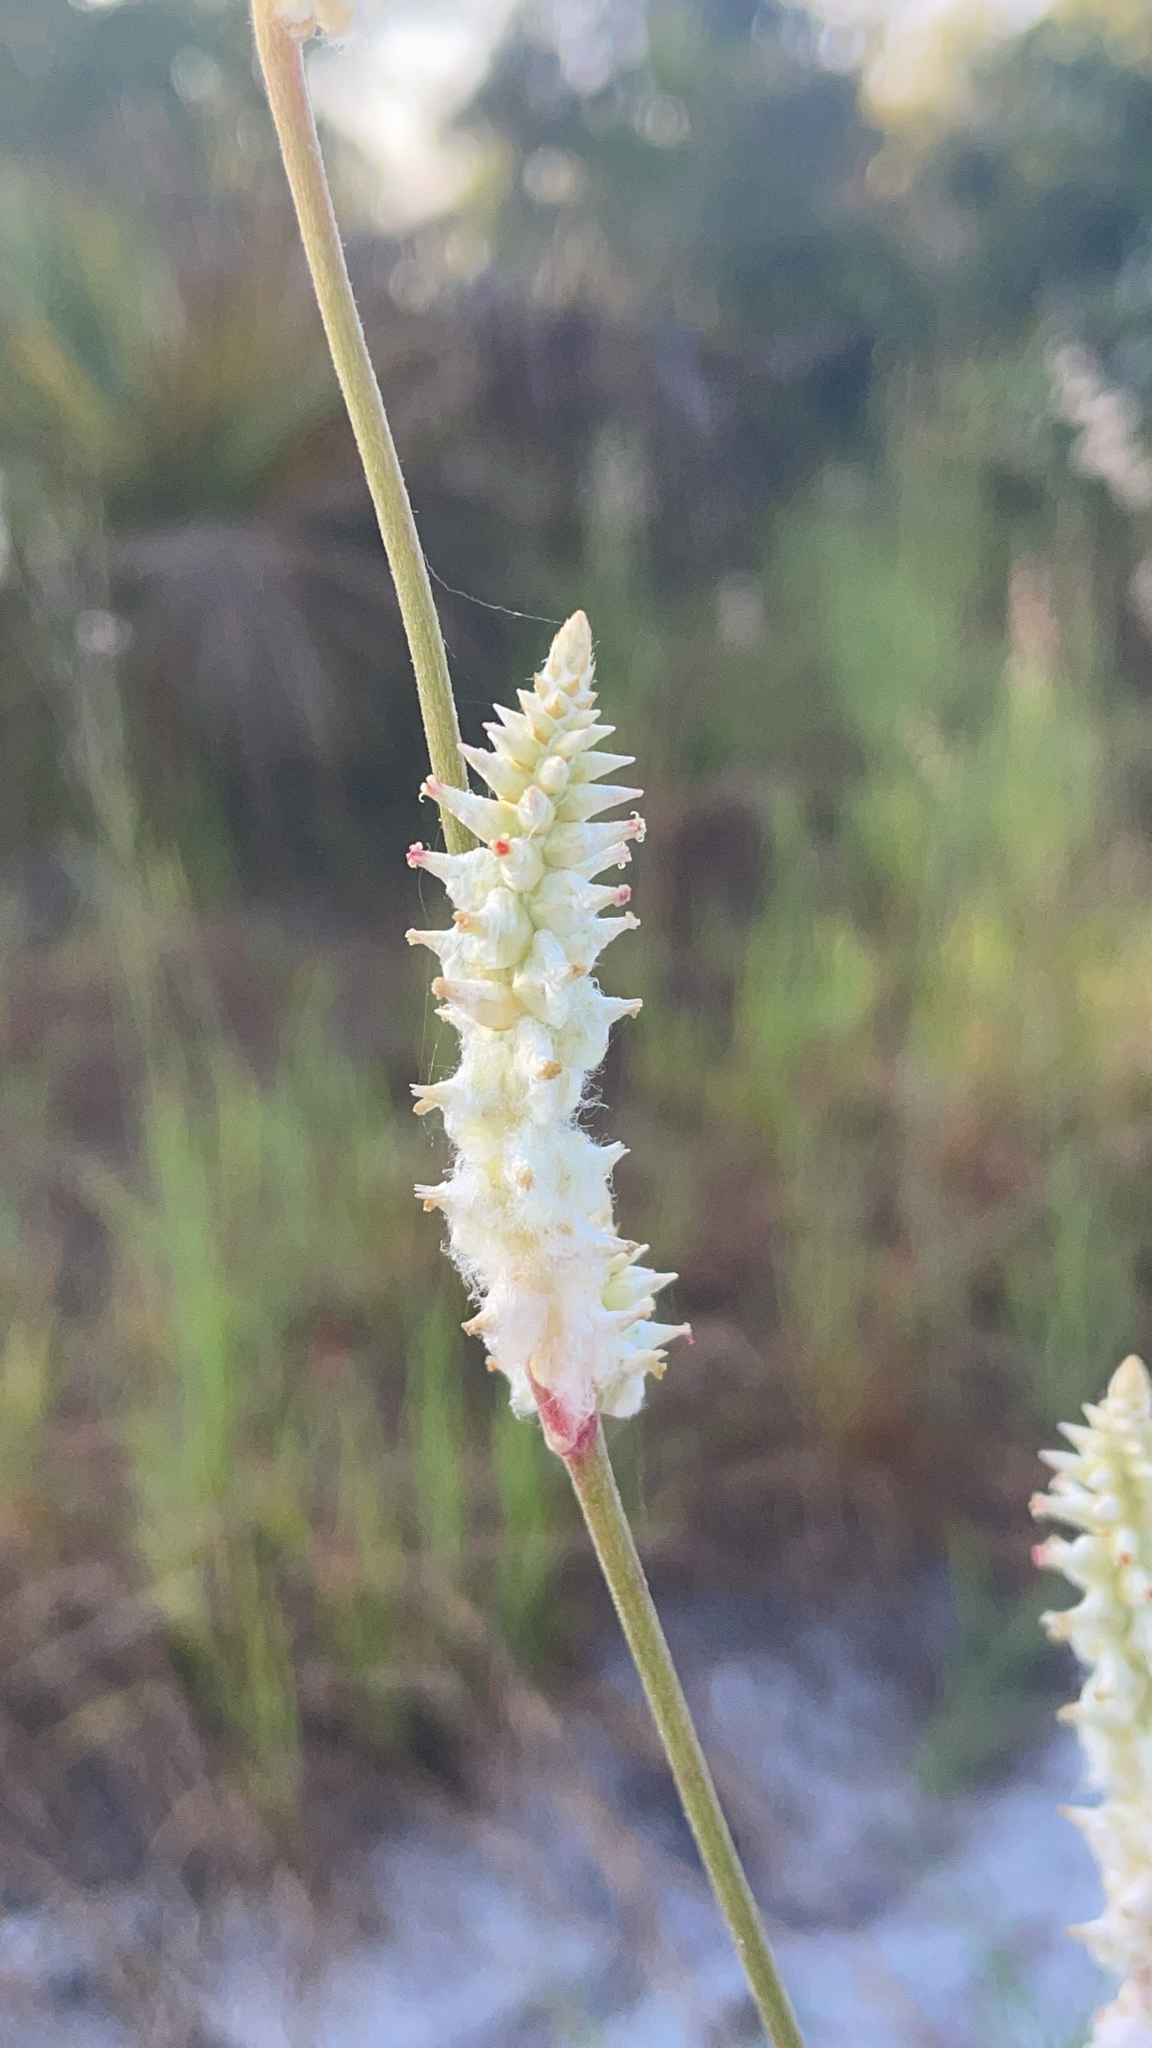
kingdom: Plantae
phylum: Tracheophyta
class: Magnoliopsida
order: Caryophyllales
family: Amaranthaceae
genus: Froelichia
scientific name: Froelichia floridana
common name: Florida snake-cotton
